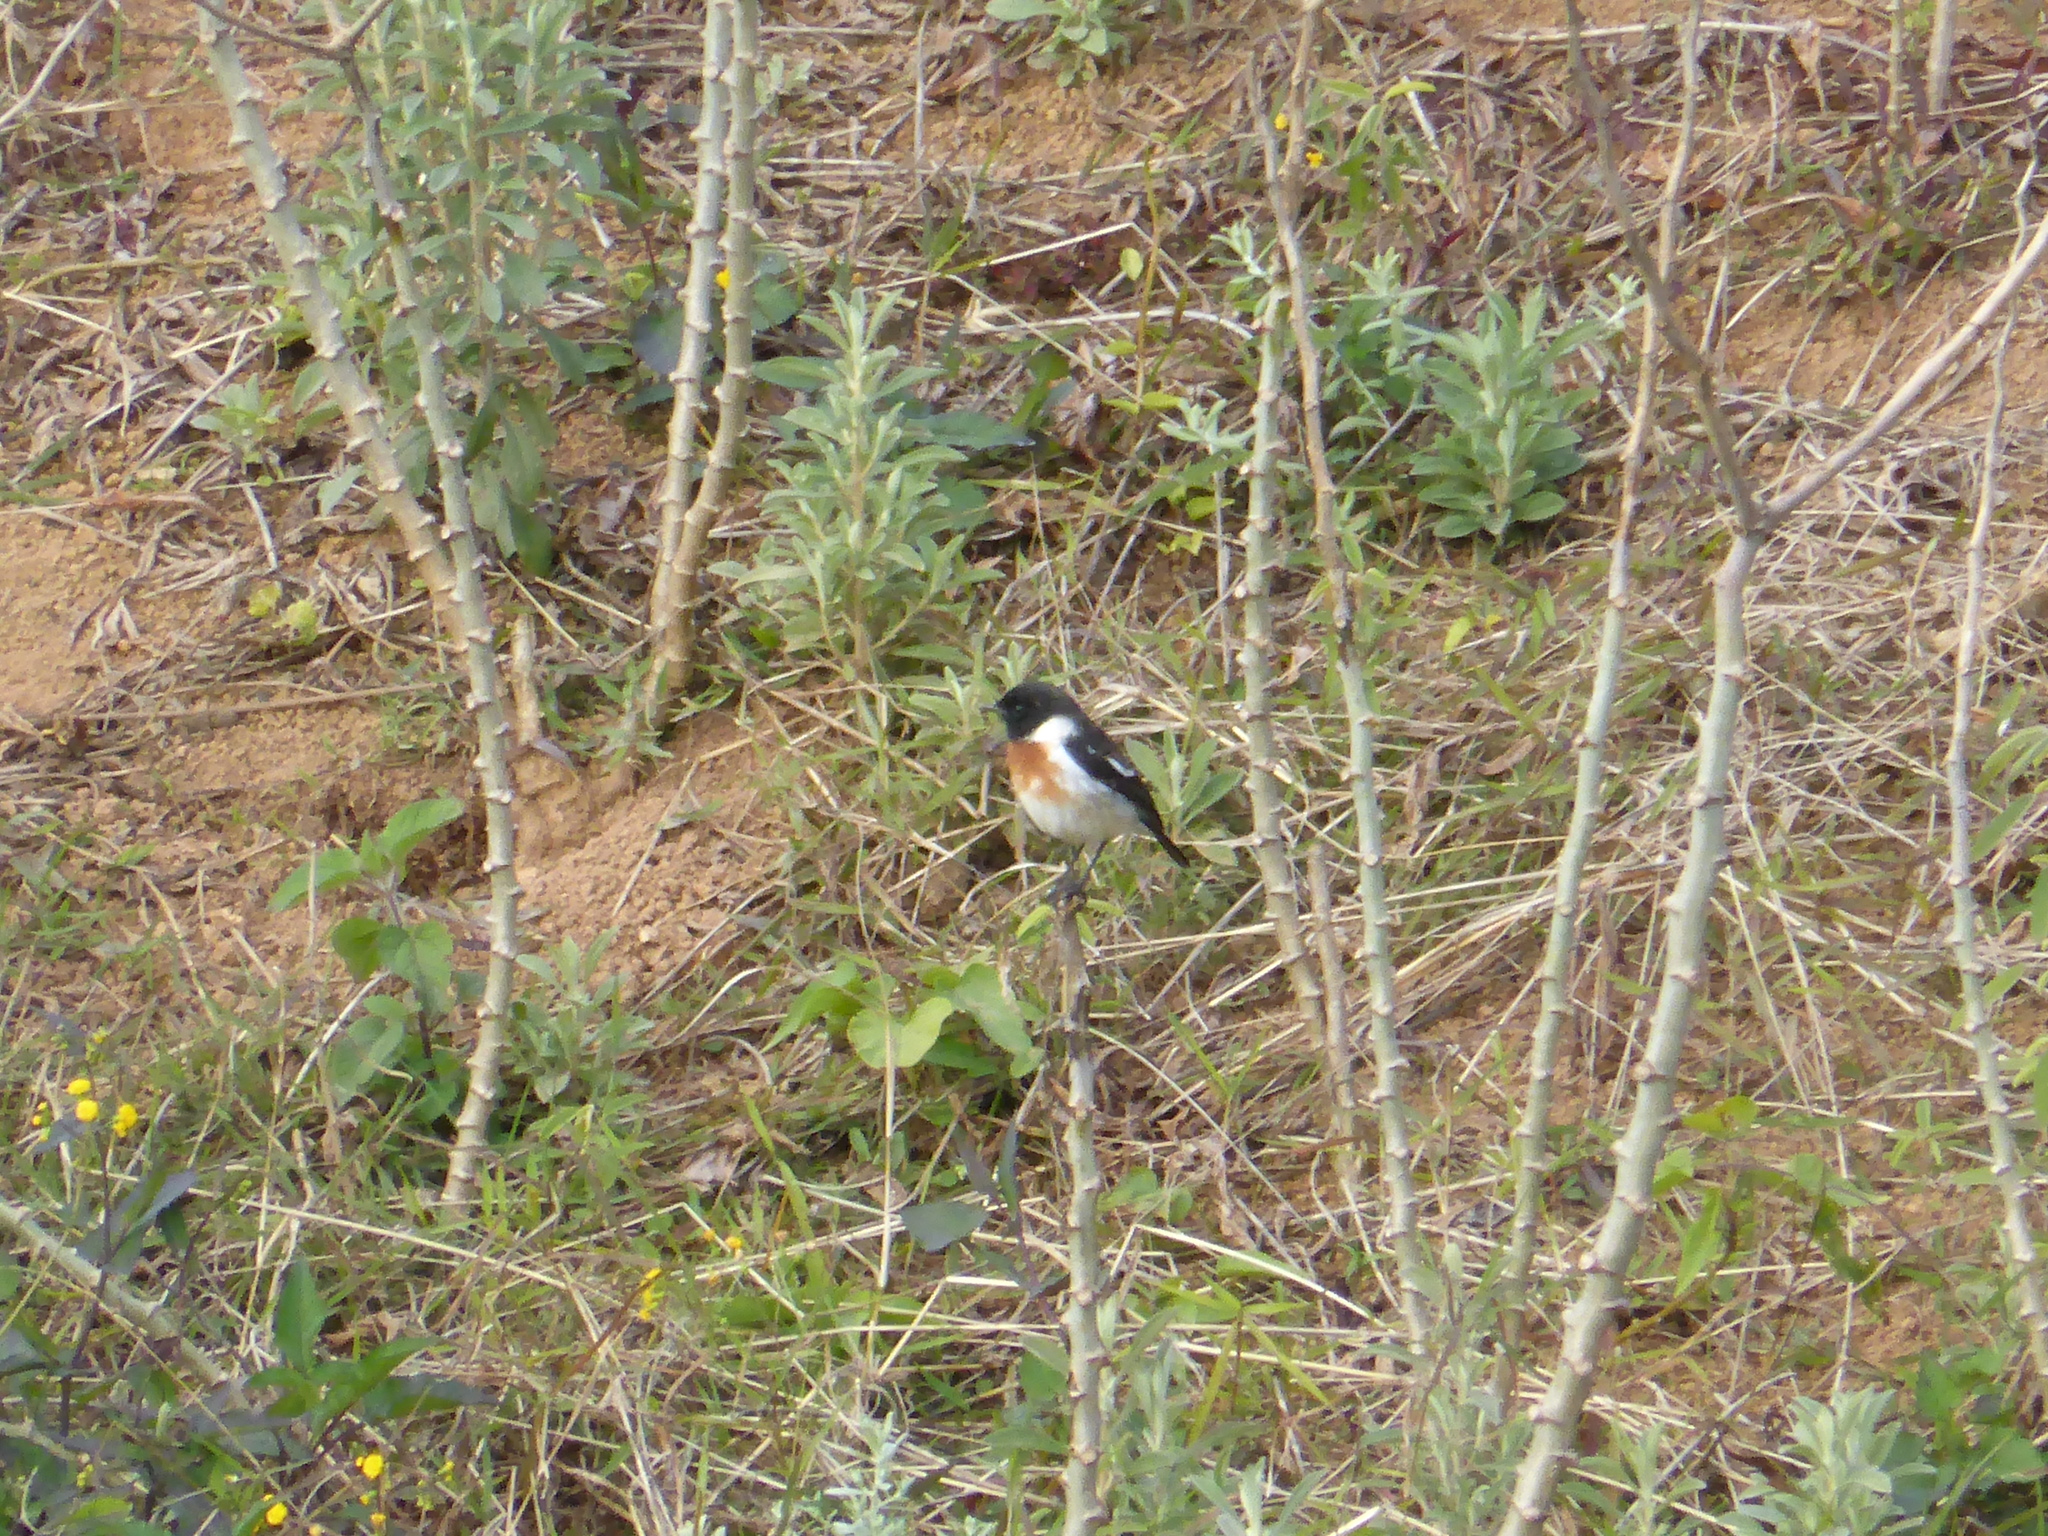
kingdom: Animalia
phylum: Chordata
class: Aves
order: Passeriformes
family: Muscicapidae
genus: Saxicola
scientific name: Saxicola torquatus
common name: African stonechat
